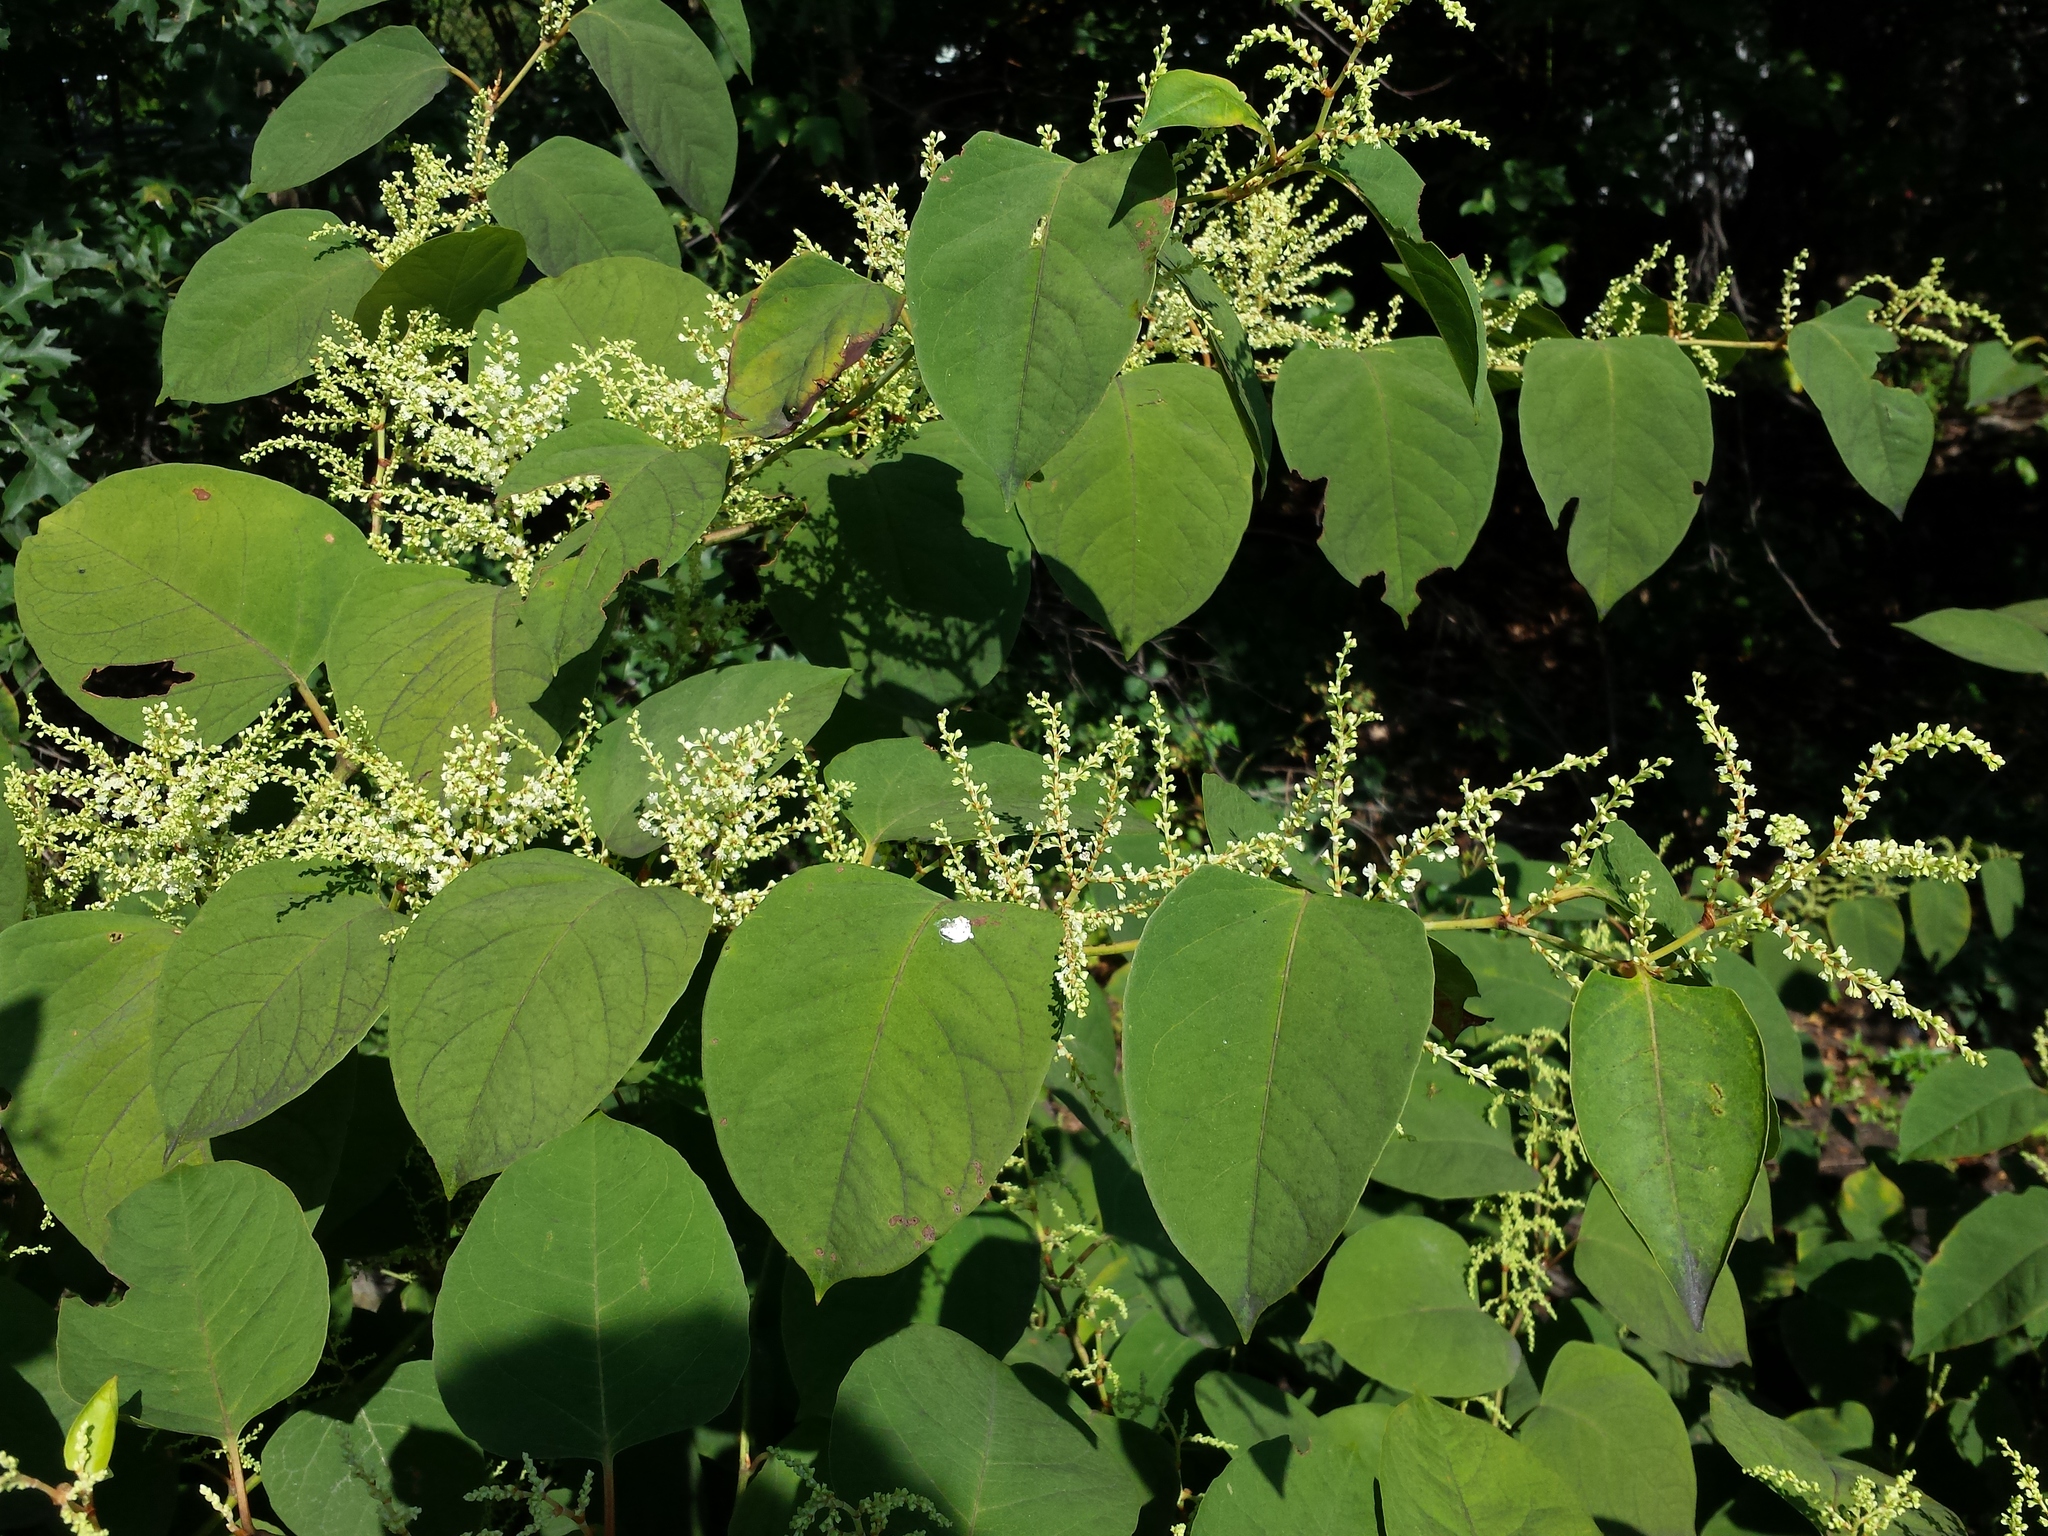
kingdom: Plantae
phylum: Tracheophyta
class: Magnoliopsida
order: Caryophyllales
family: Polygonaceae
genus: Reynoutria
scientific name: Reynoutria japonica
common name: Japanese knotweed
